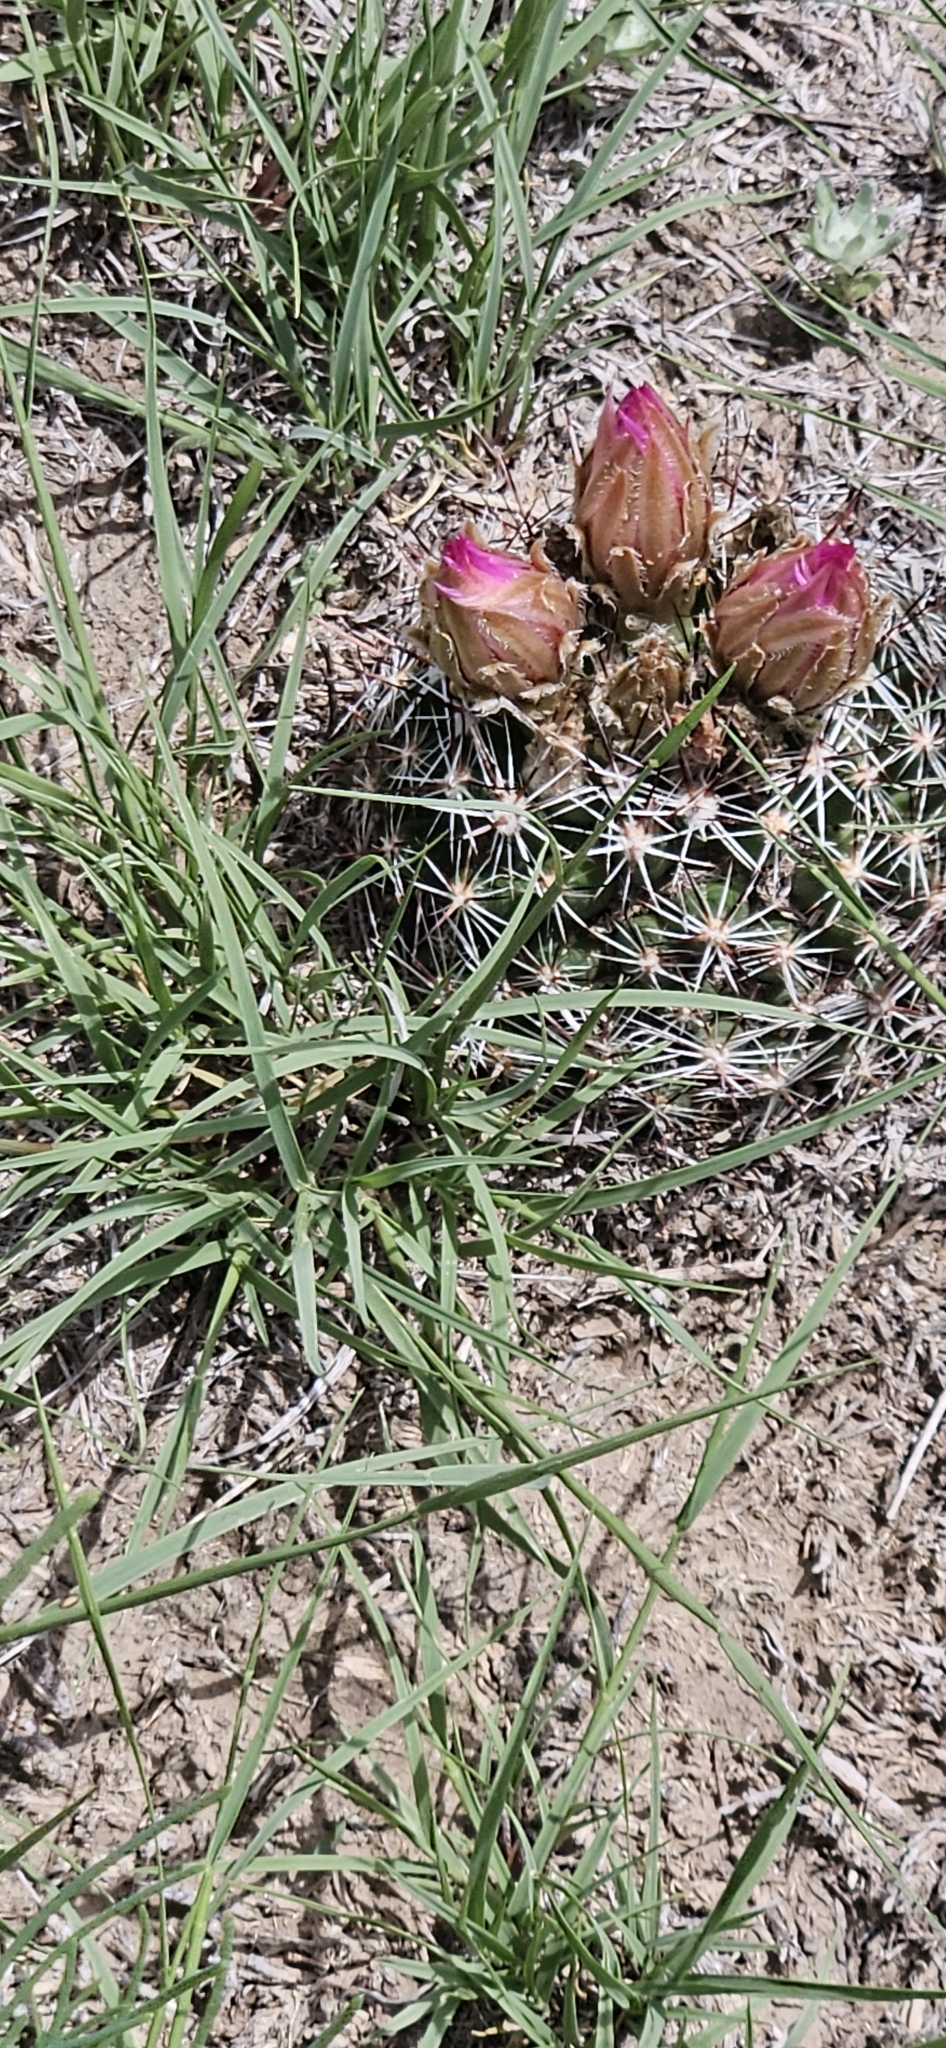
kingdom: Plantae
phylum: Tracheophyta
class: Magnoliopsida
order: Caryophyllales
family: Cactaceae
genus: Pelecyphora
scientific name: Pelecyphora vivipara
